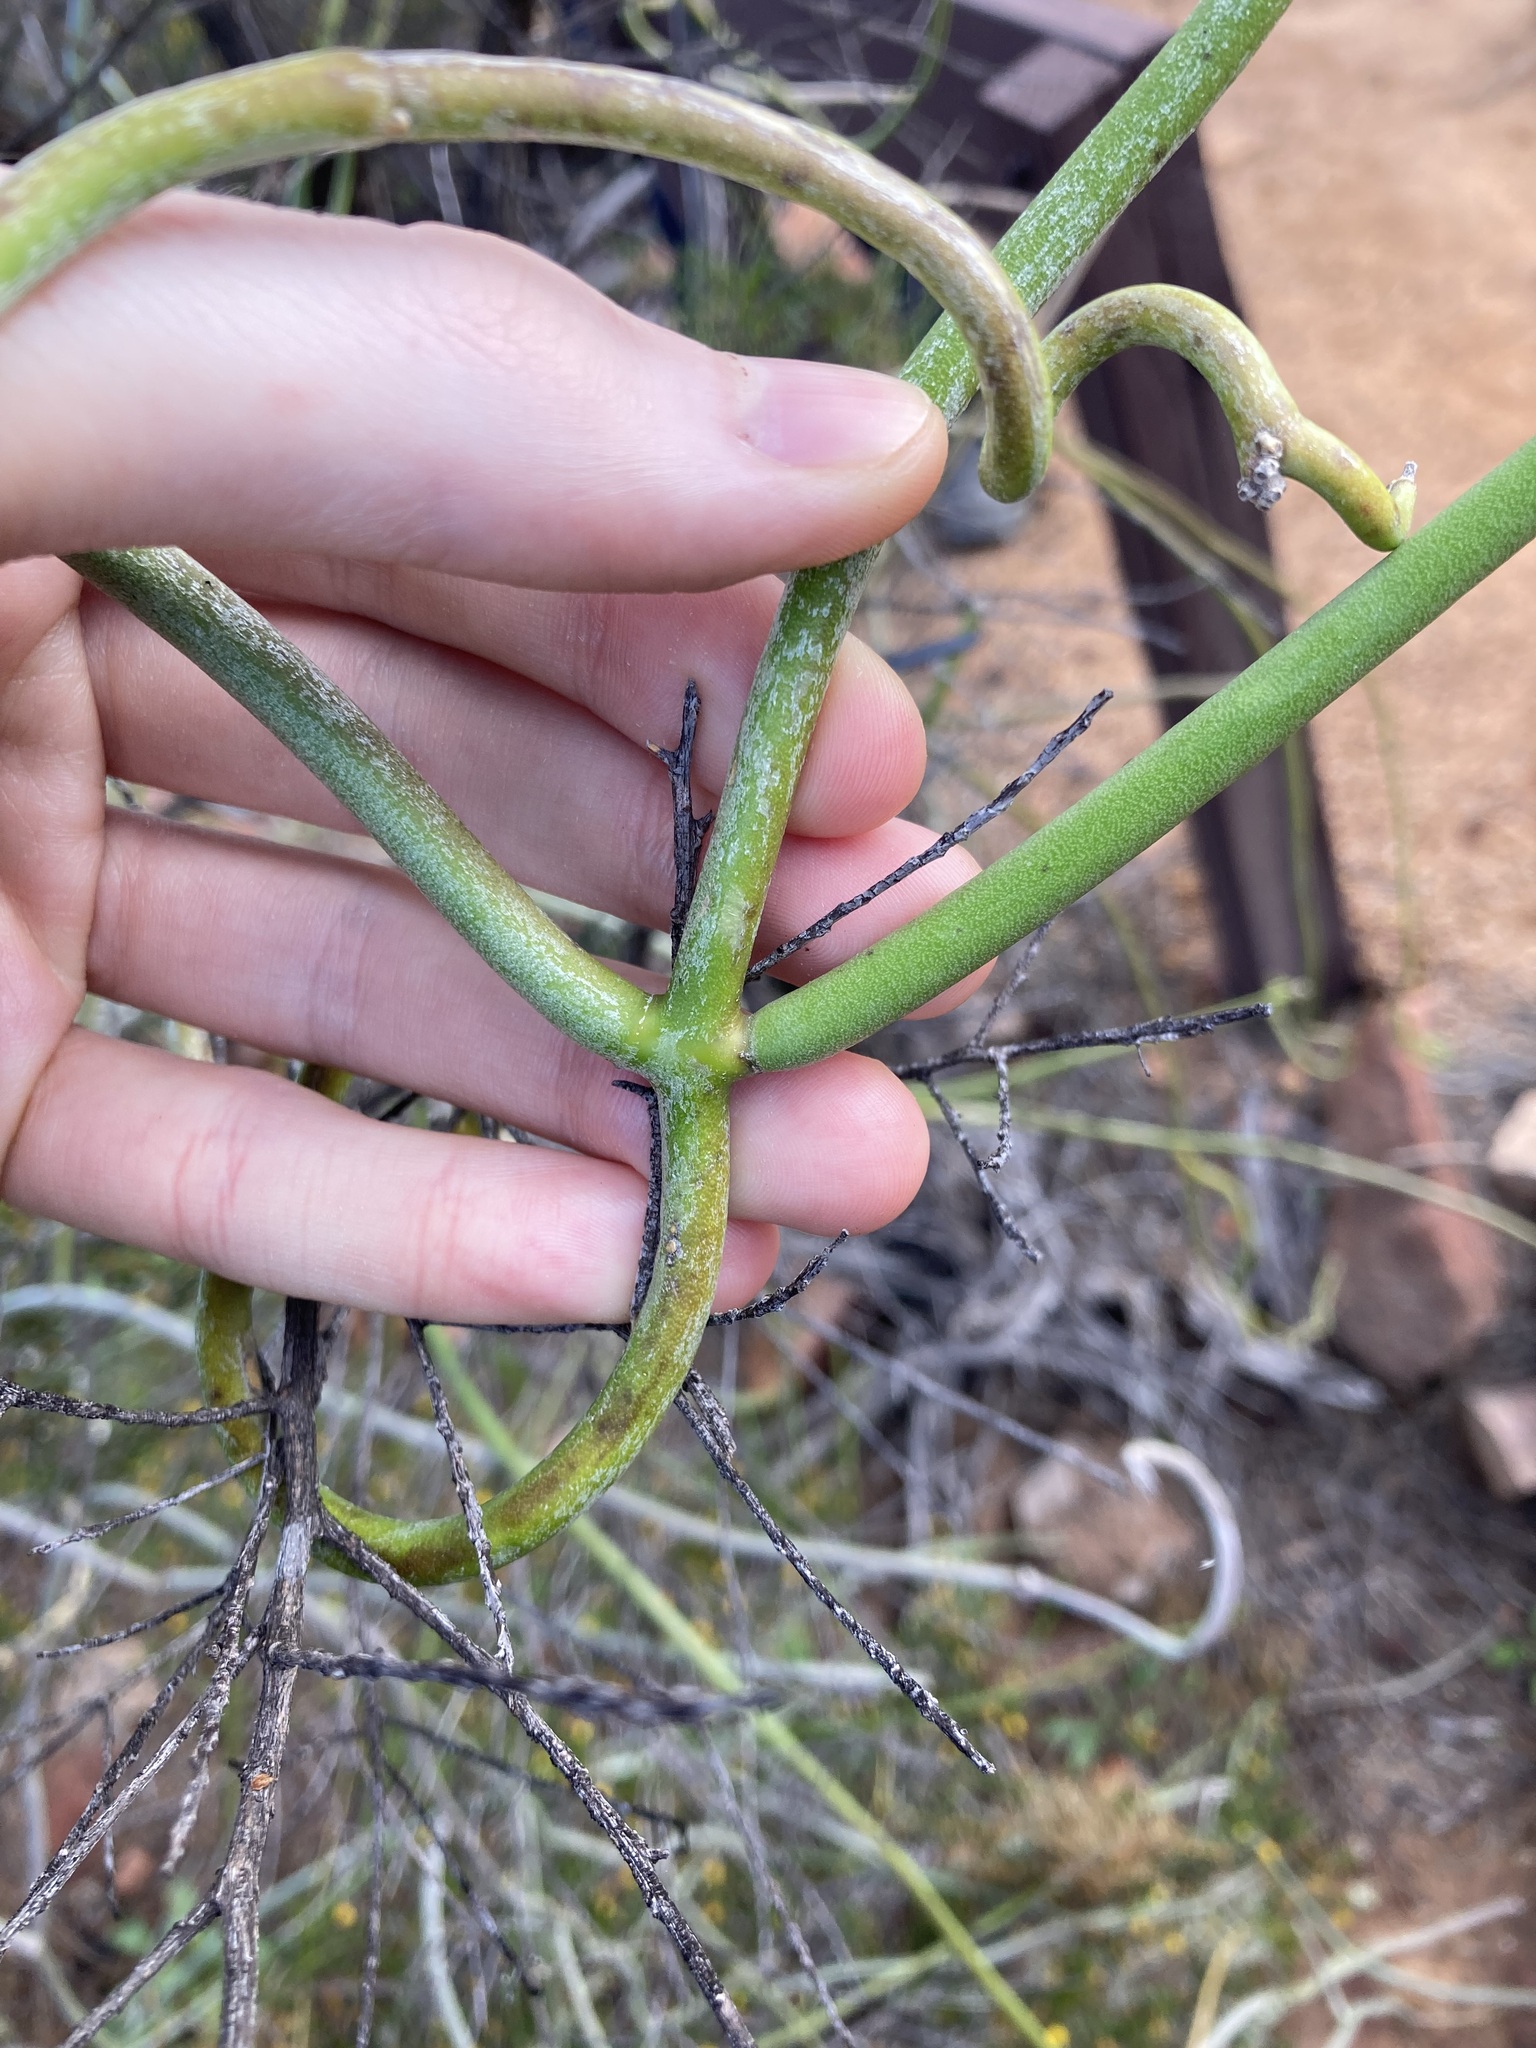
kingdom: Plantae
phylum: Tracheophyta
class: Magnoliopsida
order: Gentianales
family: Apocynaceae
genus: Cynanchum
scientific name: Cynanchum viminale
